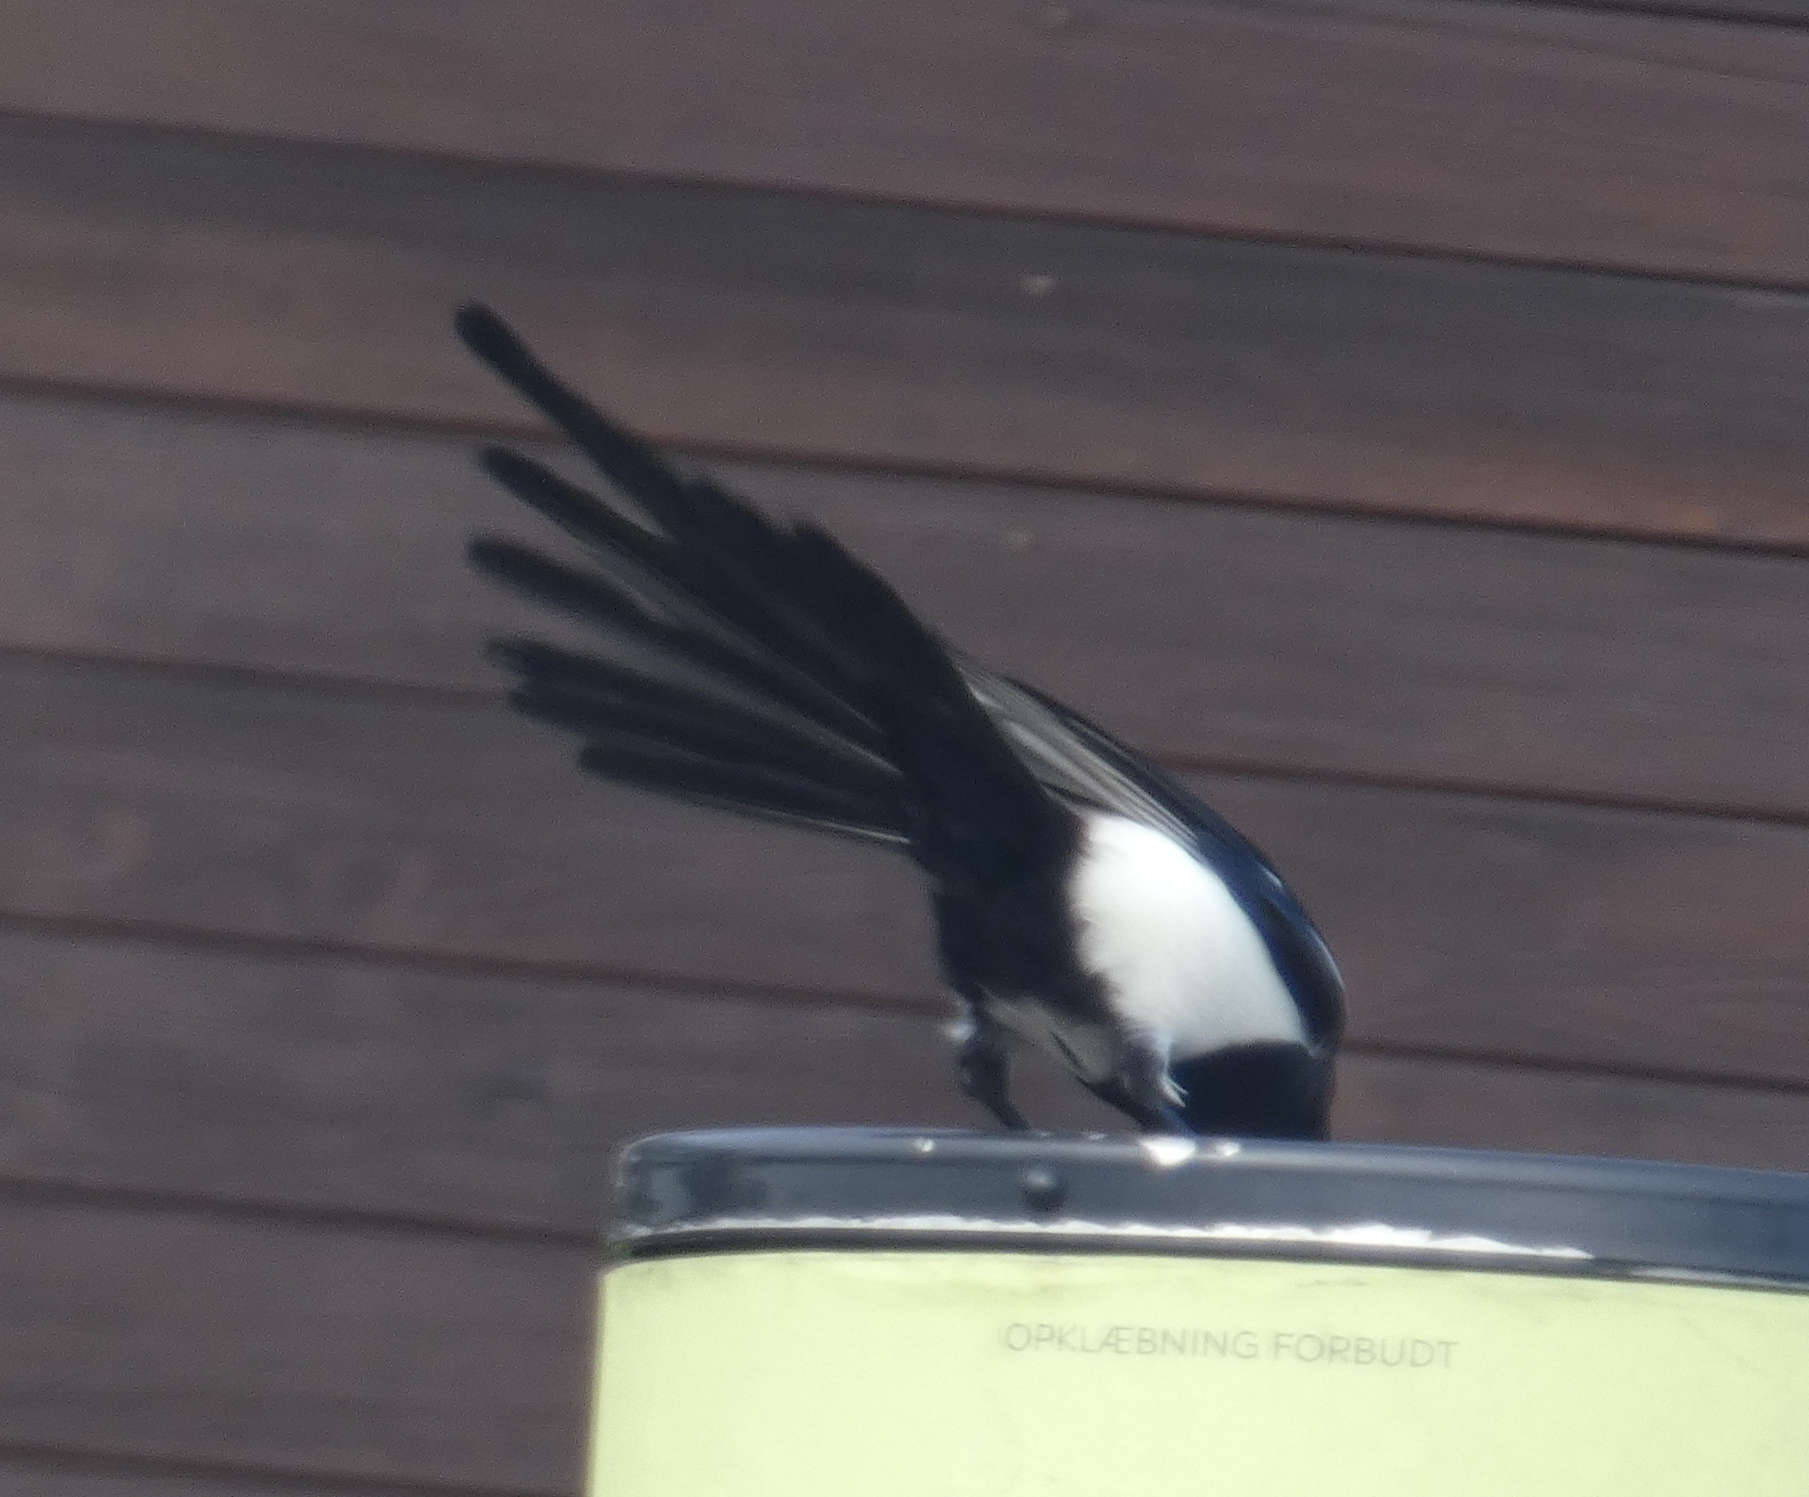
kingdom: Animalia
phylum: Chordata
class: Aves
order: Passeriformes
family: Corvidae
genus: Pica
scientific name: Pica pica
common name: Eurasian magpie
